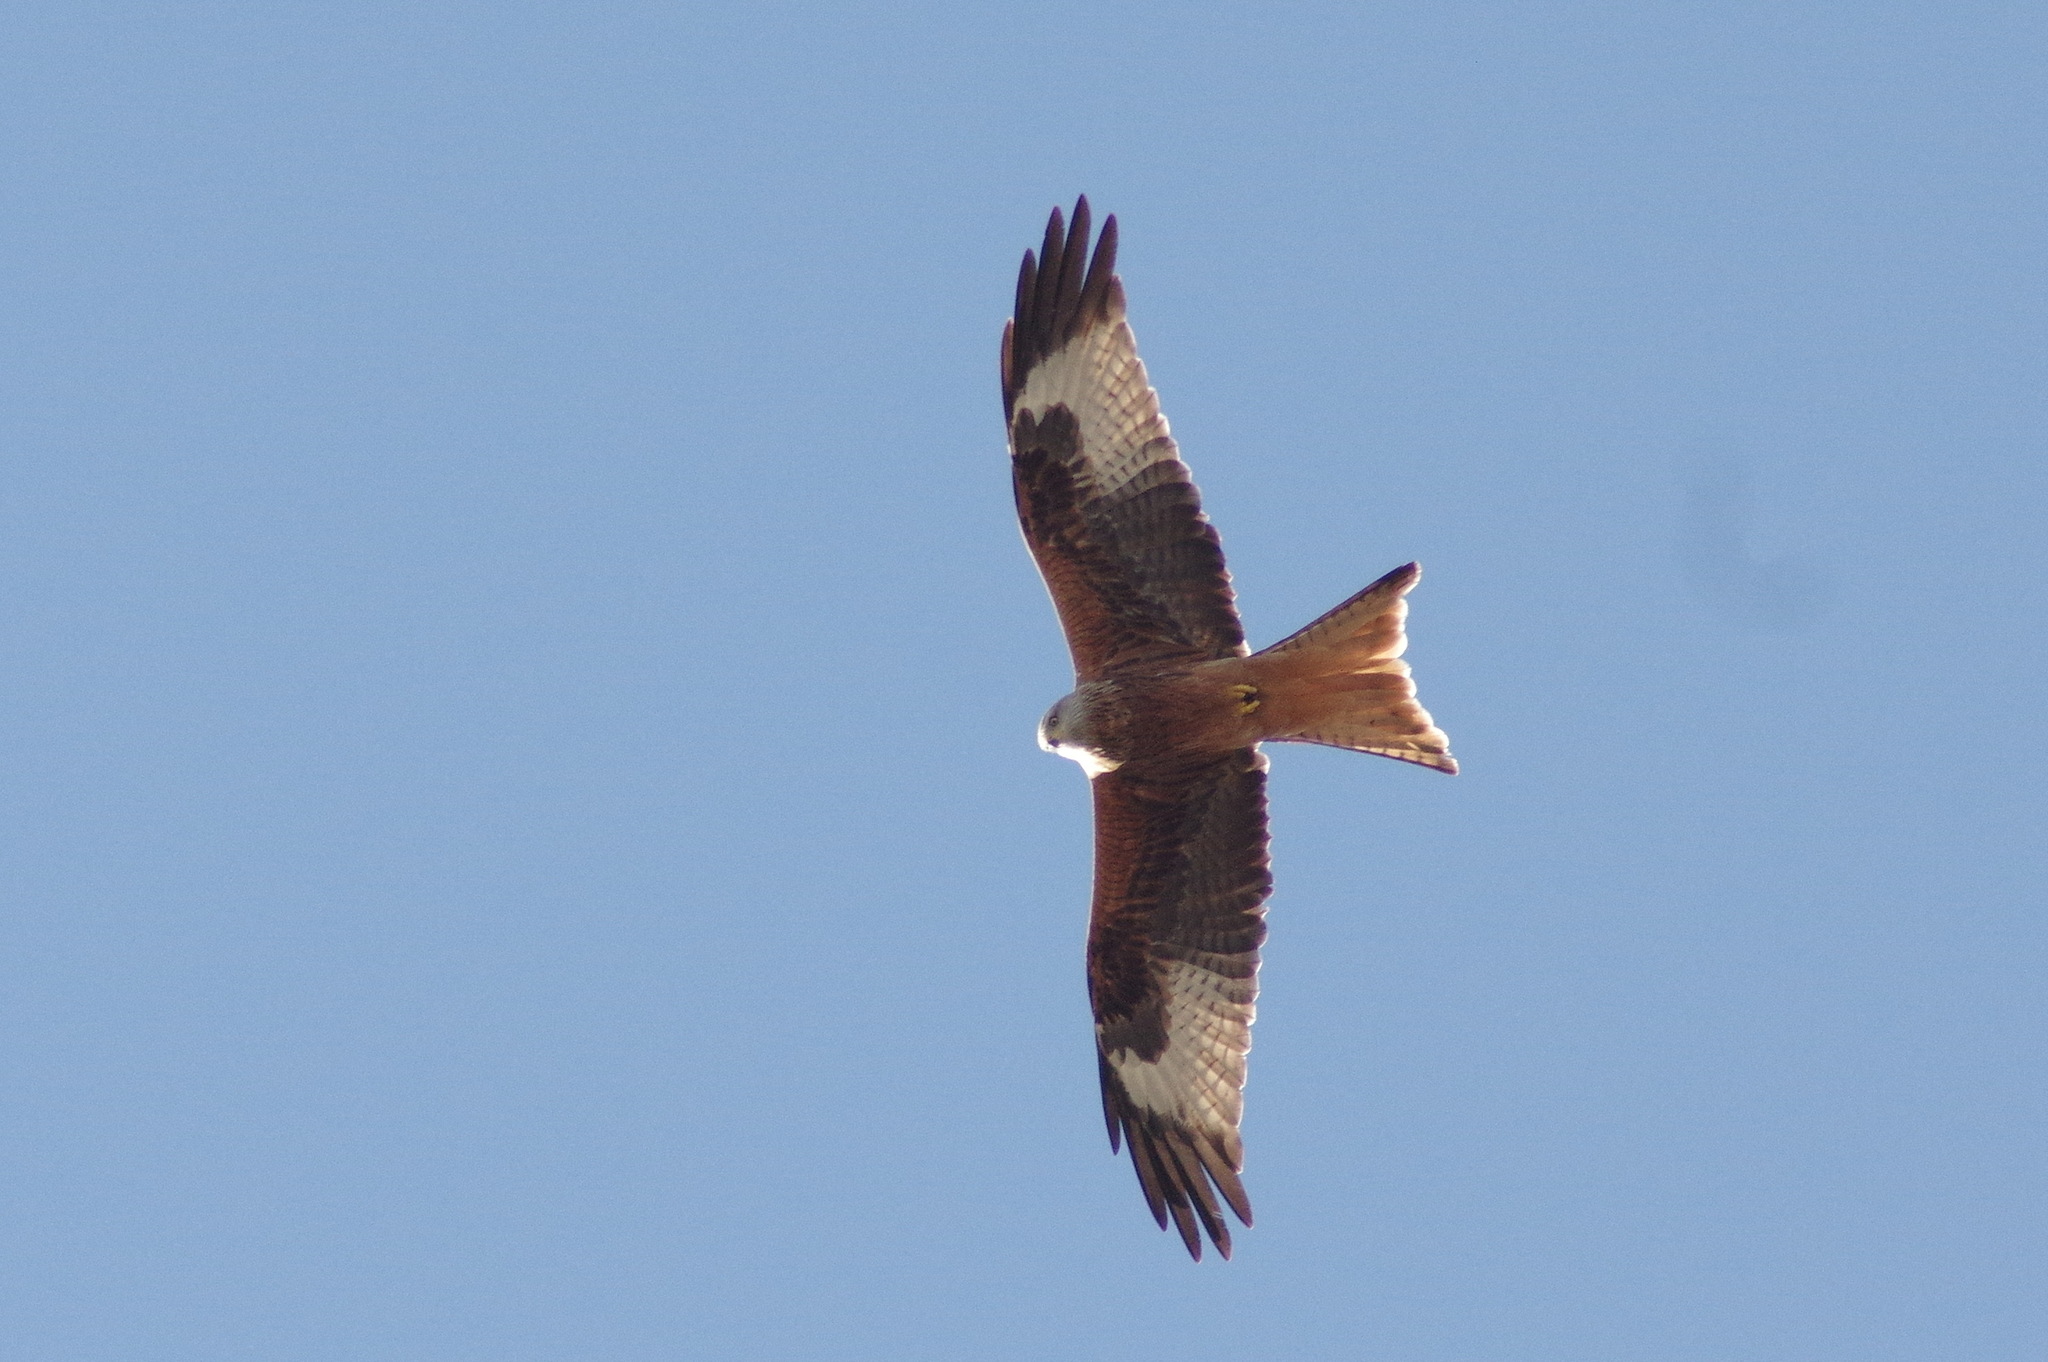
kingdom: Animalia
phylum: Chordata
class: Aves
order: Accipitriformes
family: Accipitridae
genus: Milvus
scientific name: Milvus milvus
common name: Red kite
